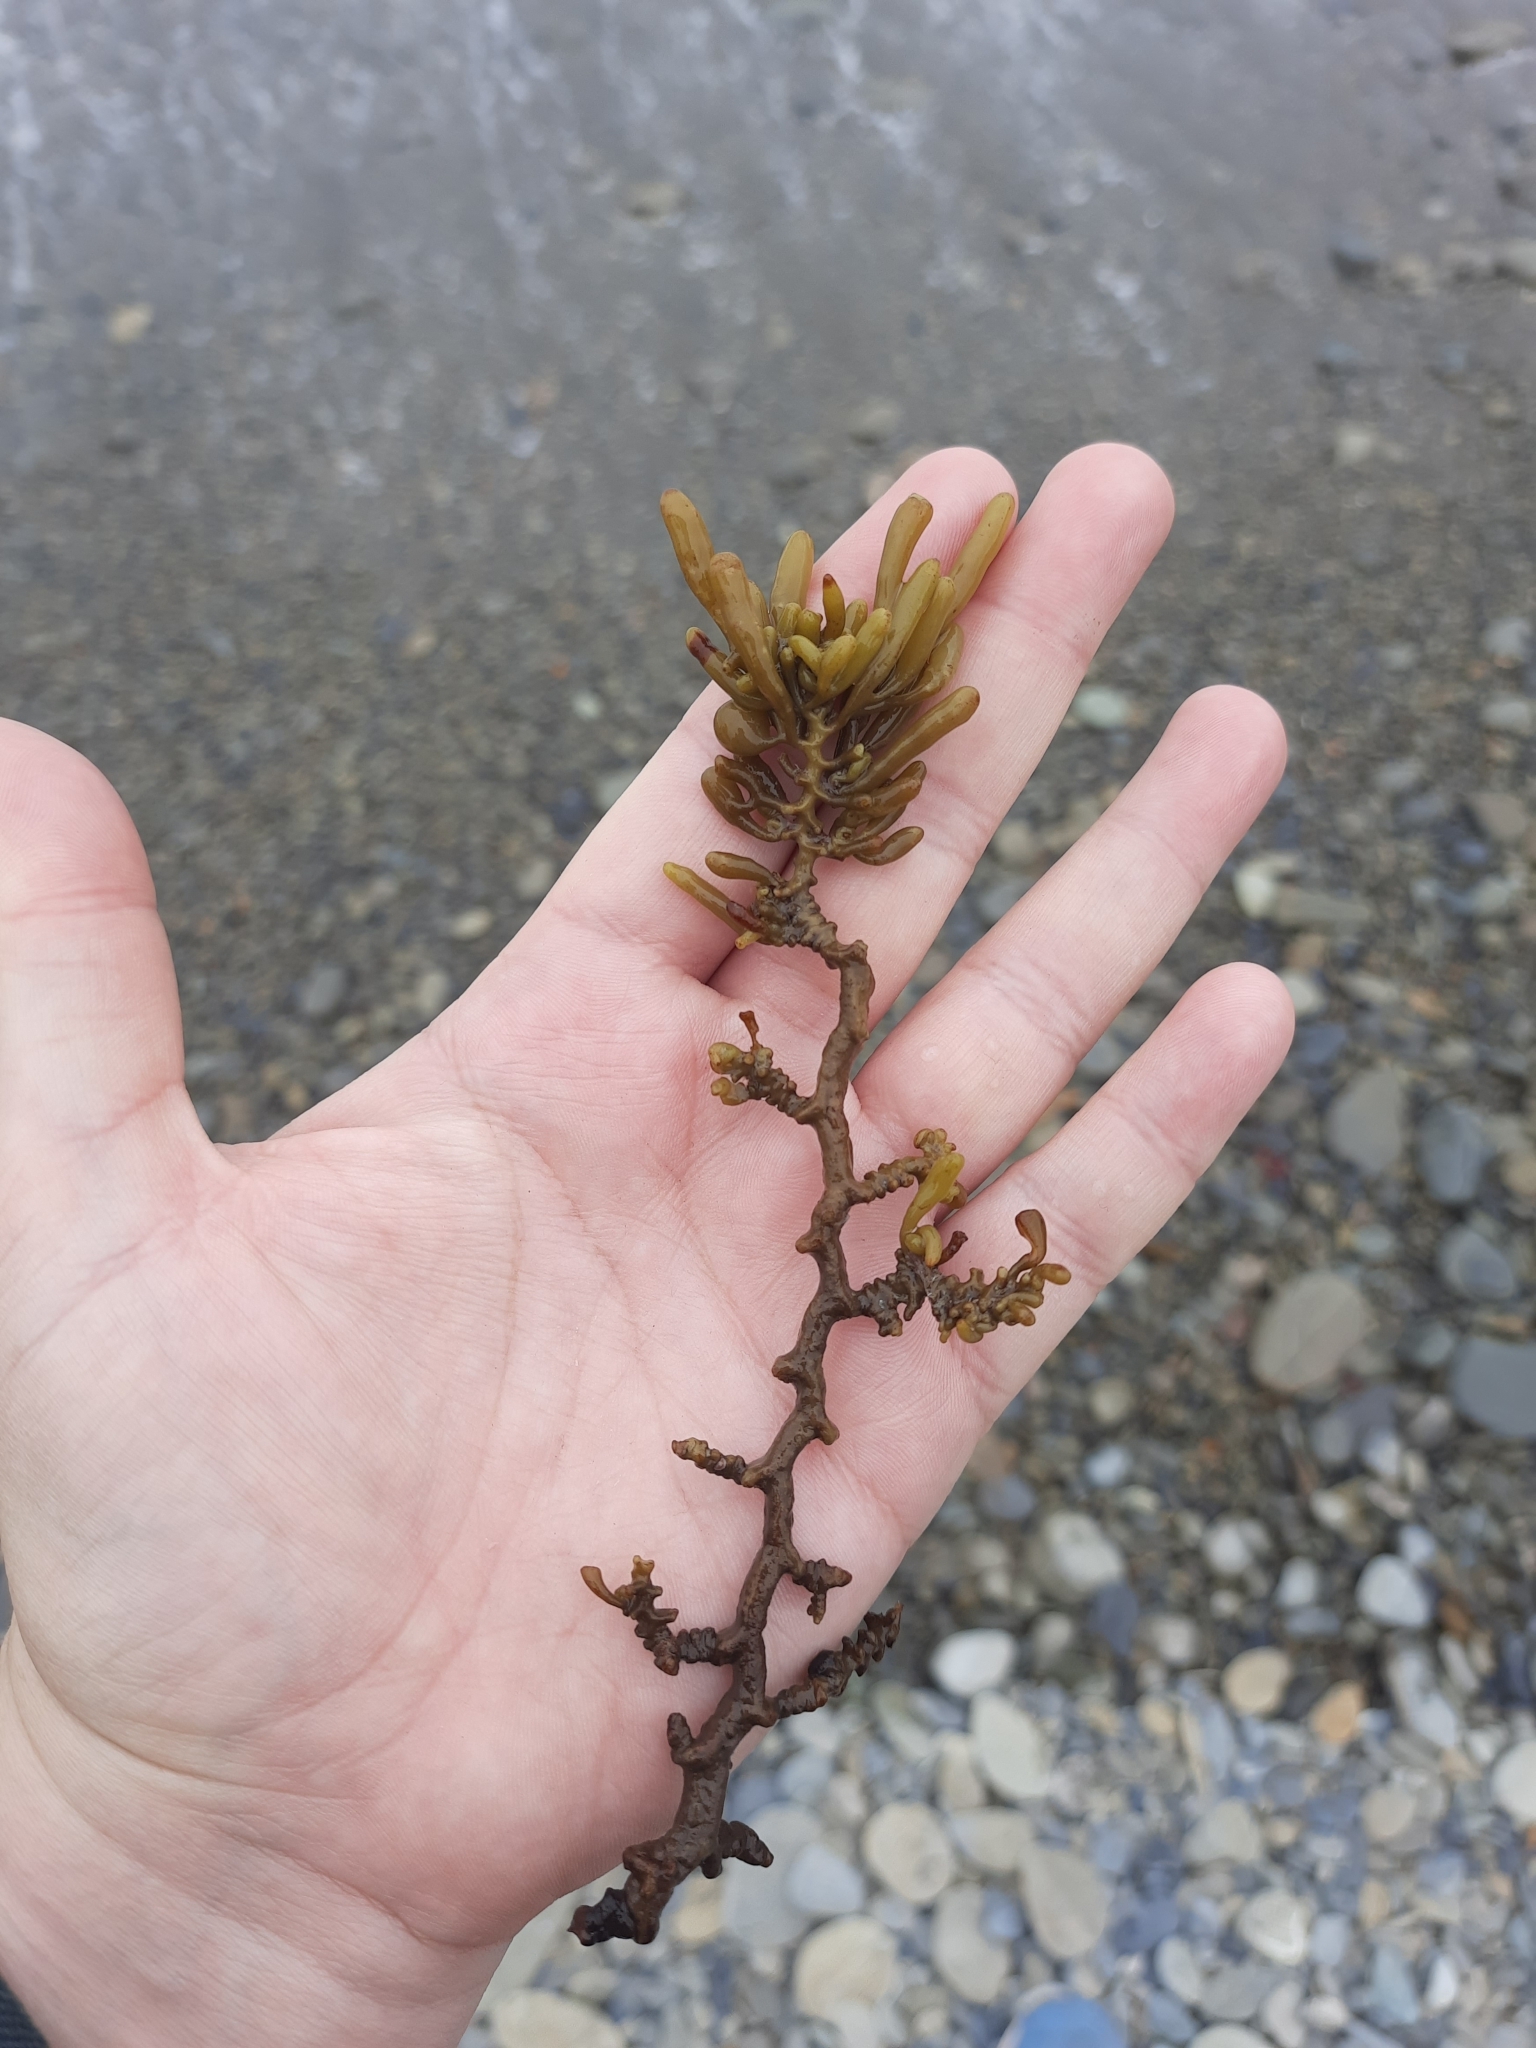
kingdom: Chromista
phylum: Ochrophyta
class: Phaeophyceae
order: Fucales
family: Sargassaceae
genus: Cystophora
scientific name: Cystophora torulosa
